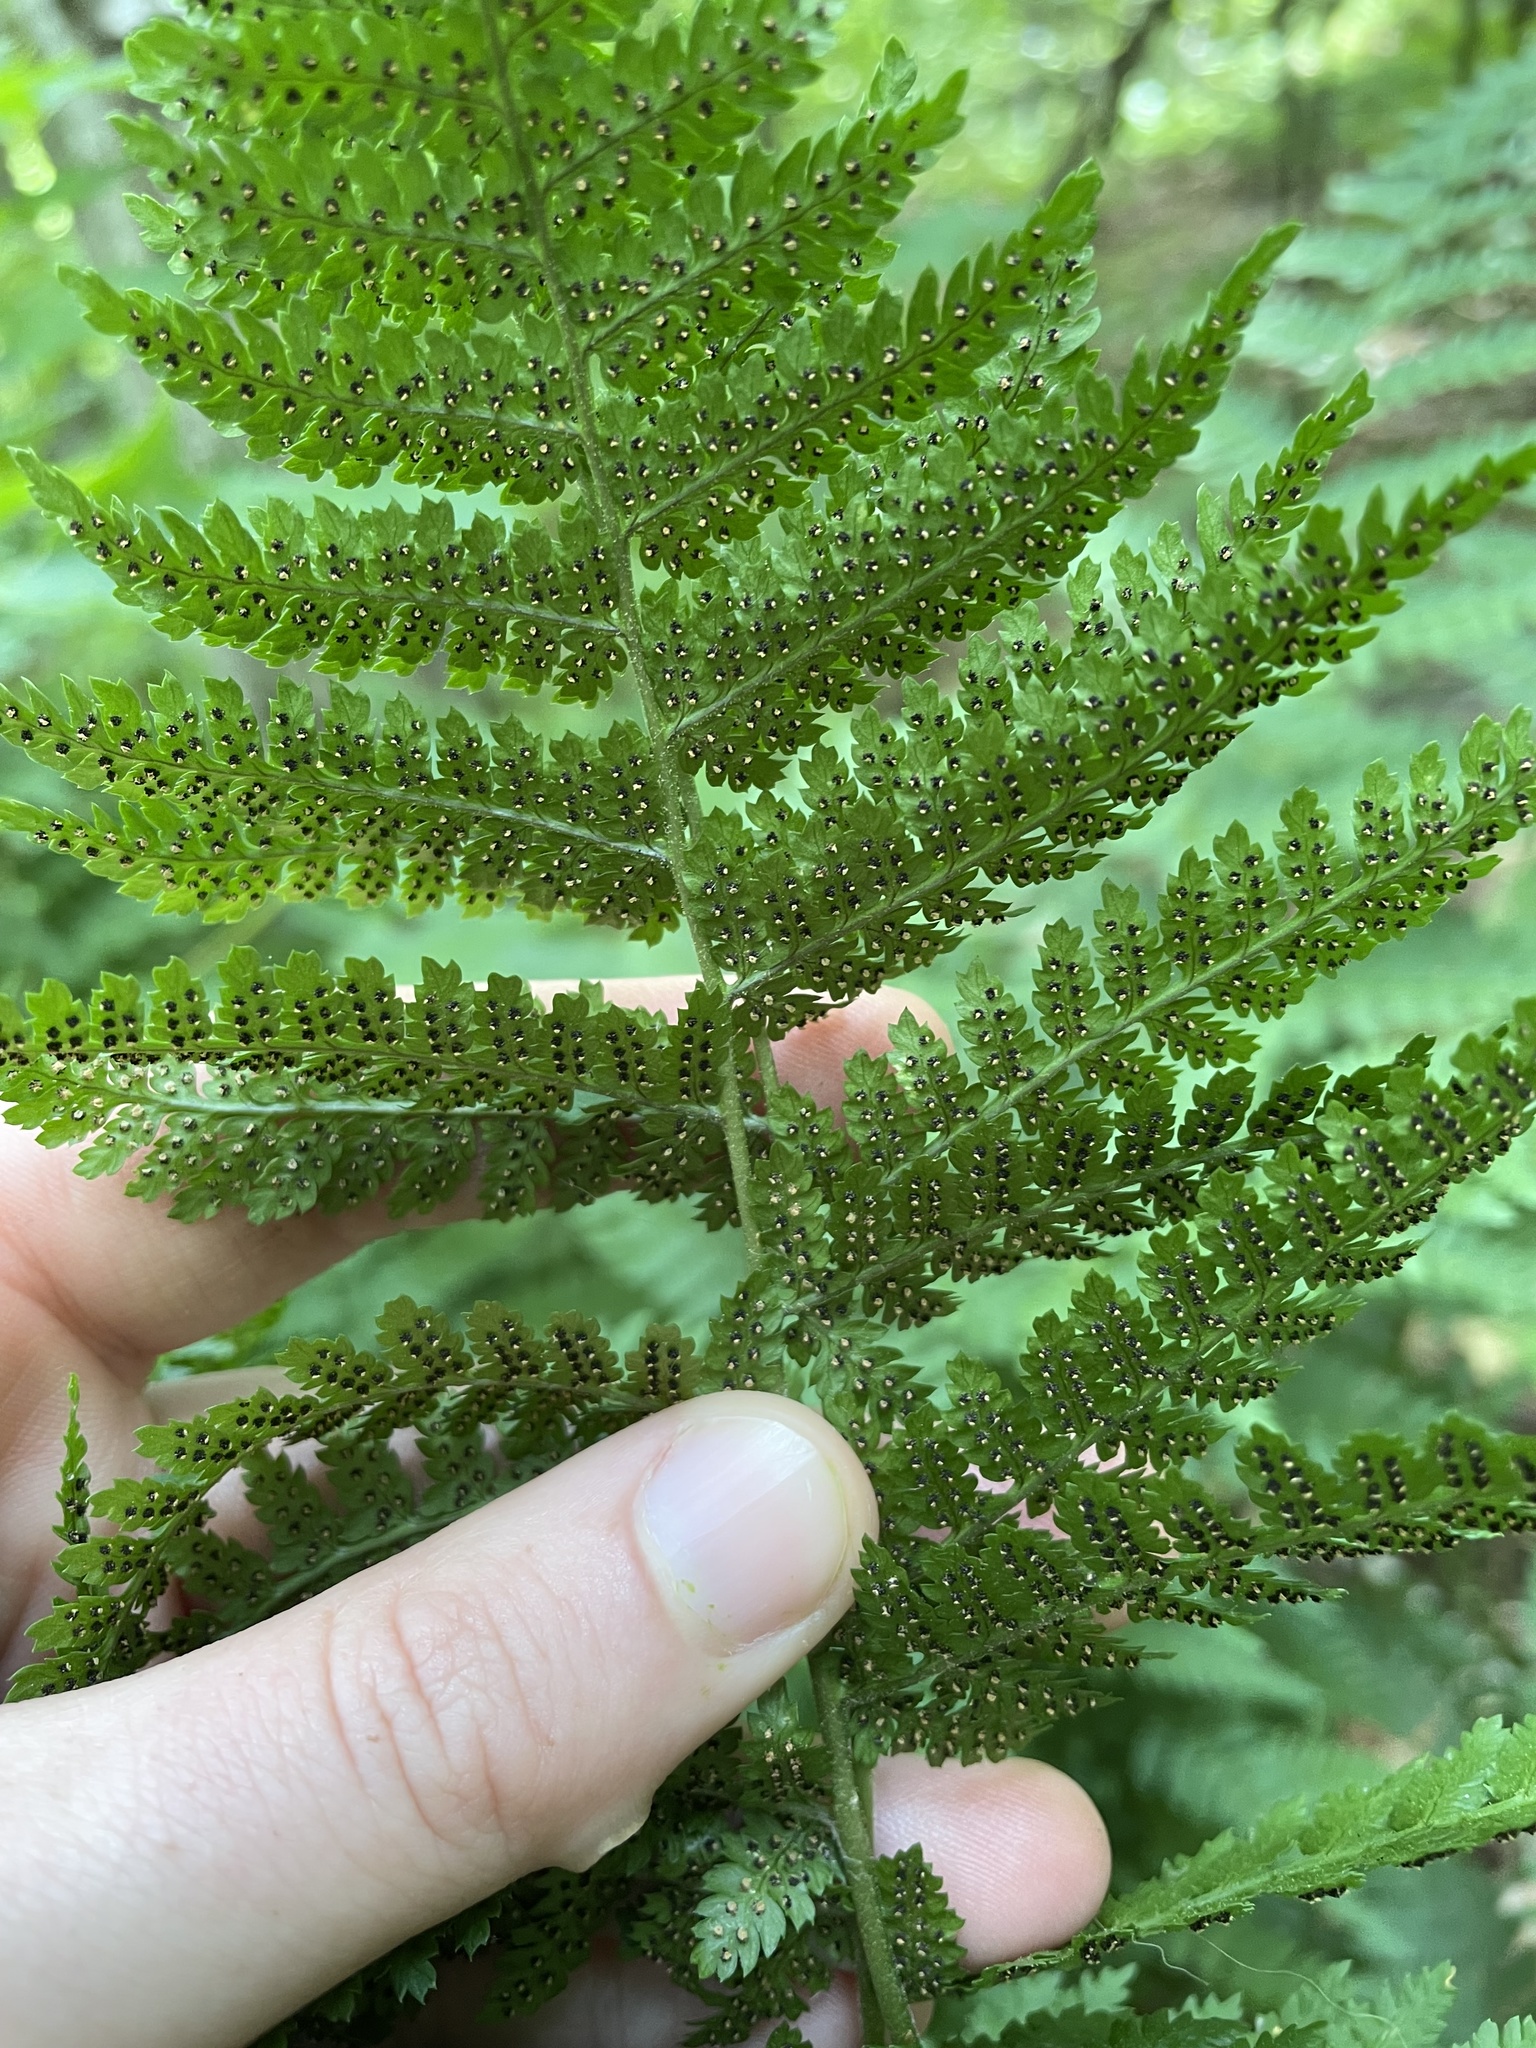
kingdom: Plantae
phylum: Tracheophyta
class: Polypodiopsida
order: Polypodiales
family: Dryopteridaceae
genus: Dryopteris
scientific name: Dryopteris intermedia
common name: Evergreen wood fern
